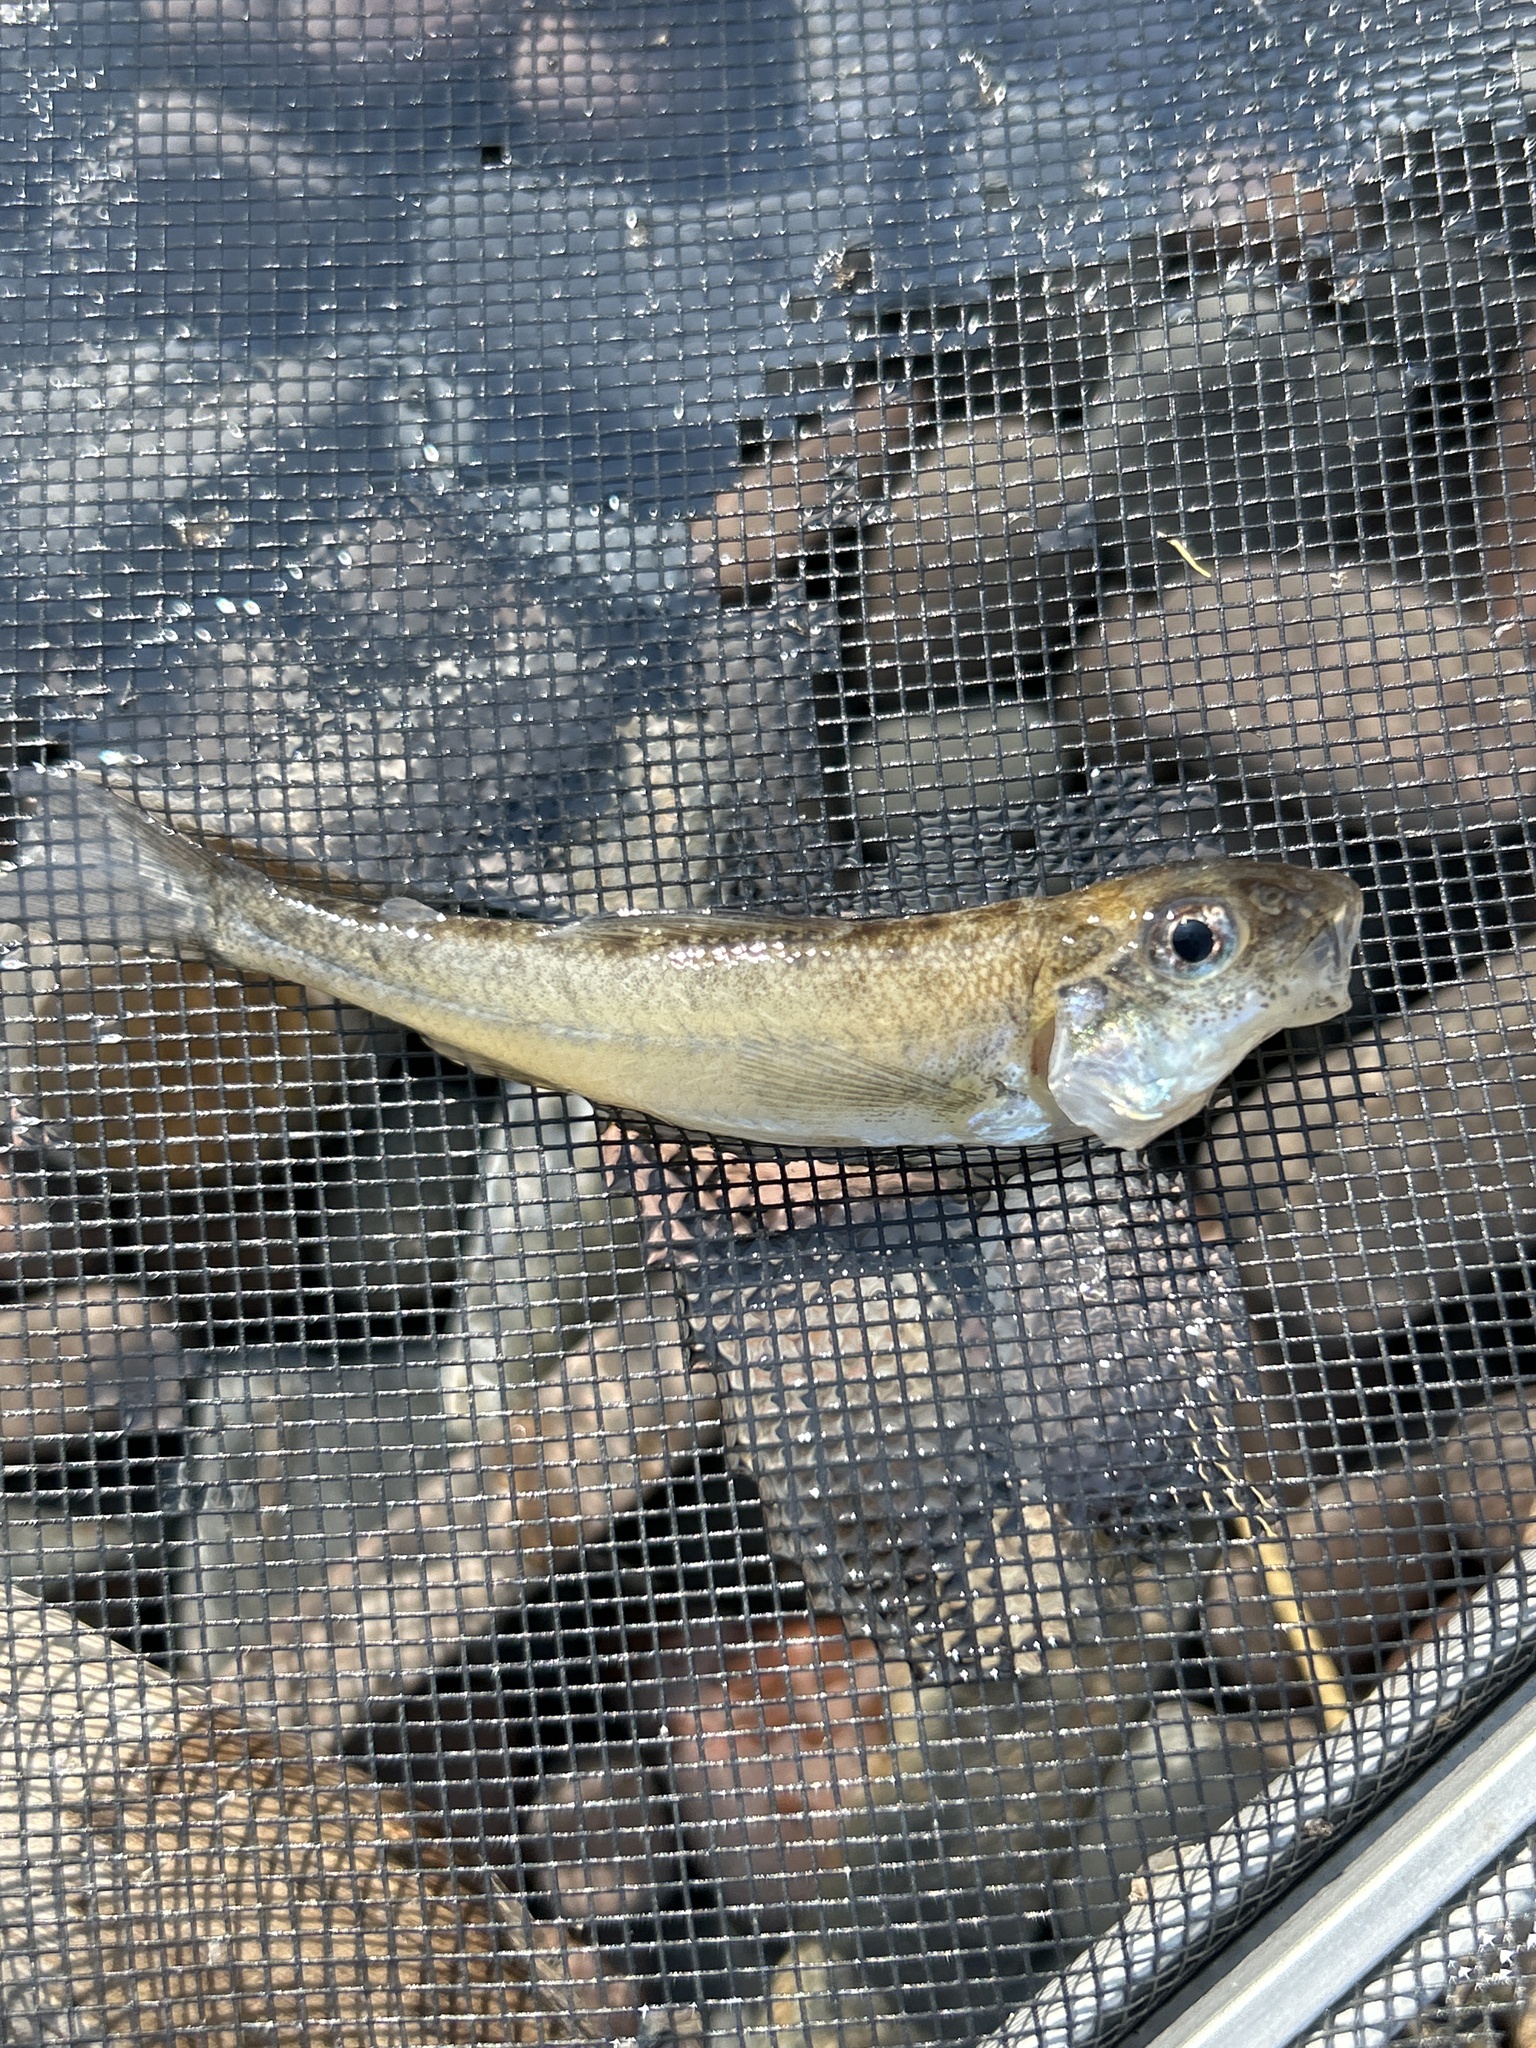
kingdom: Animalia
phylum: Chordata
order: Percopsiformes
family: Percopsidae
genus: Percopsis
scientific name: Percopsis omiscomaycus
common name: Trout-perch
